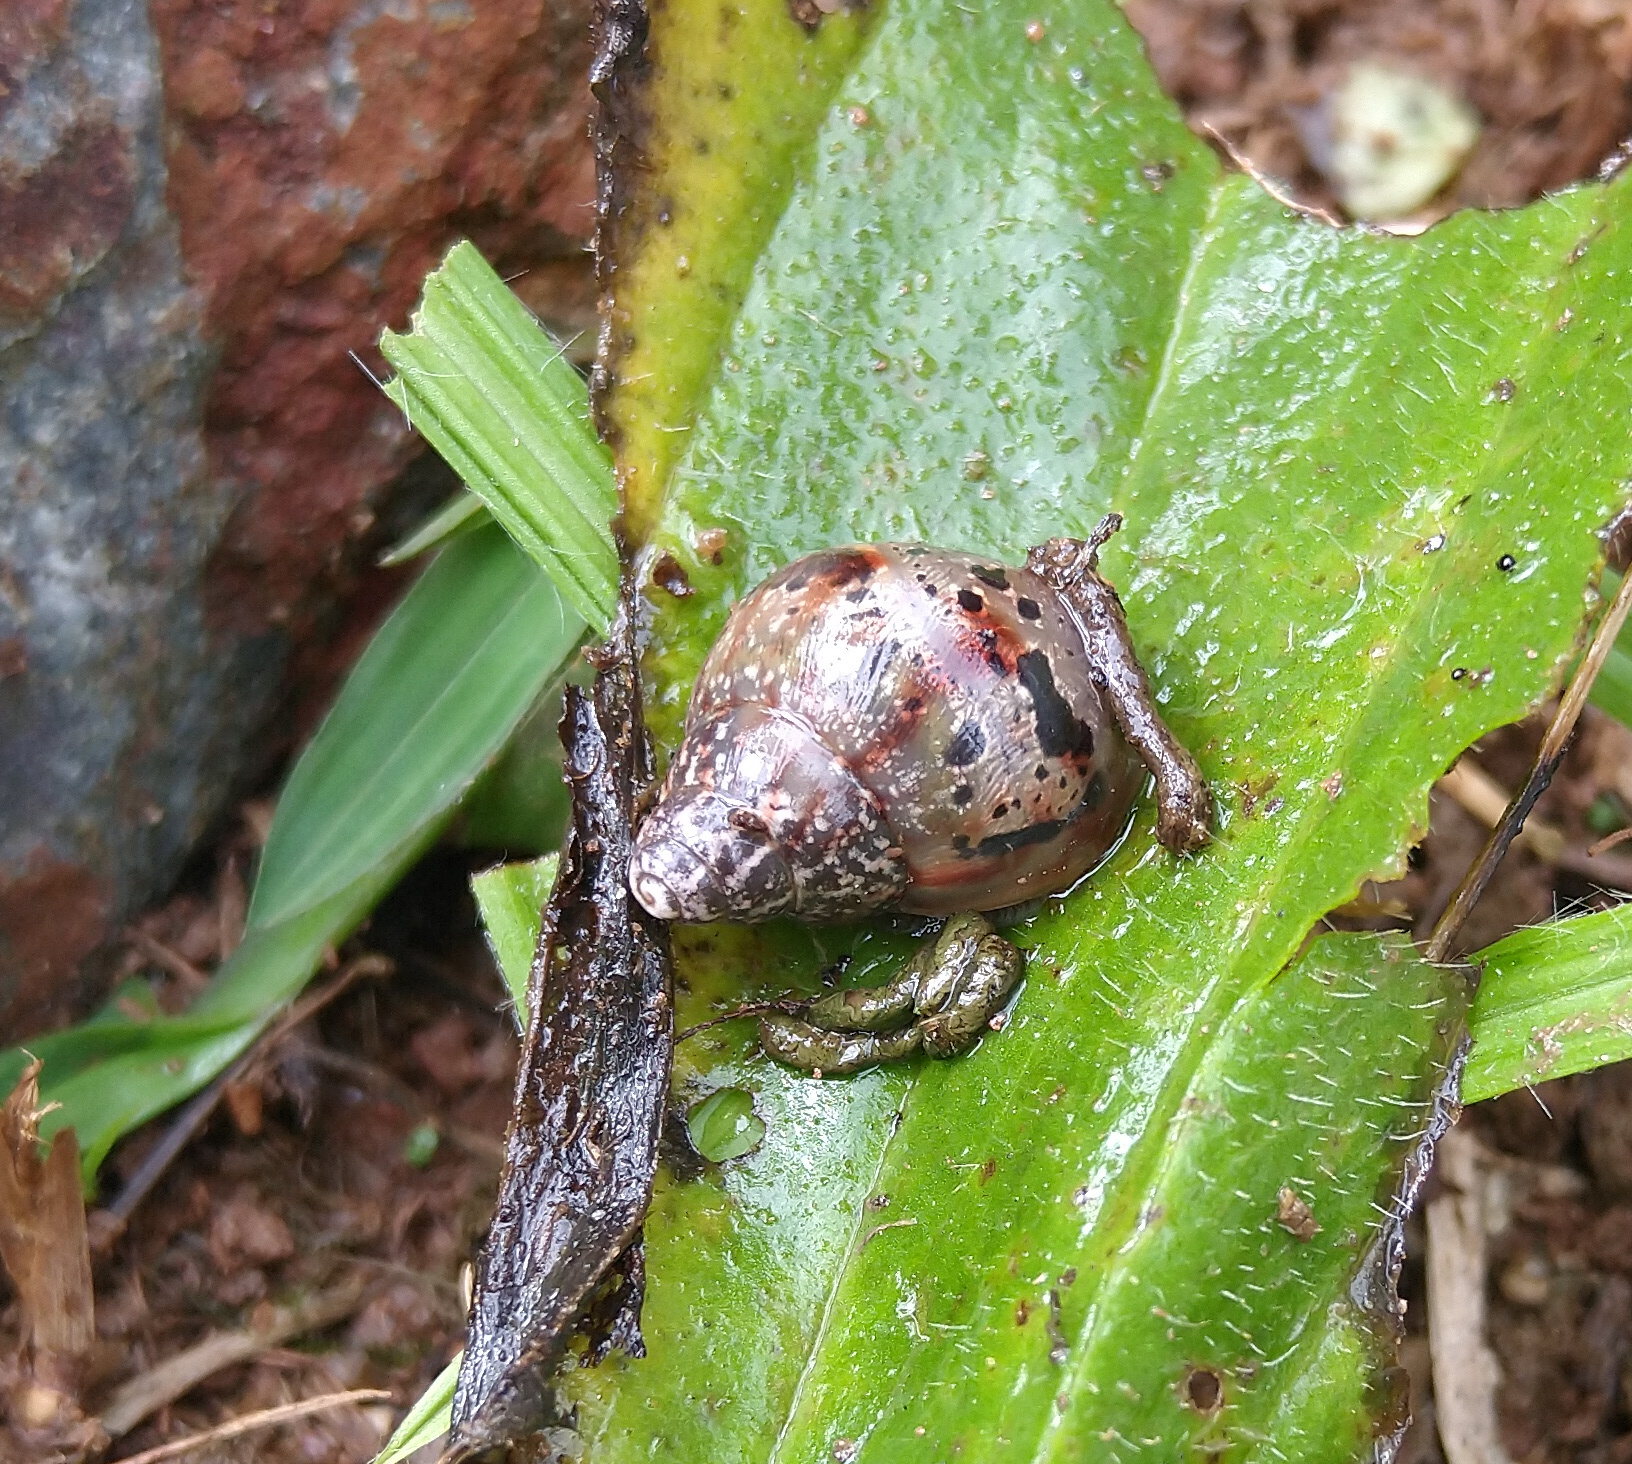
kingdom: Animalia
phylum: Mollusca
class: Gastropoda
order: Stylommatophora
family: Achatinidae
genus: Lissachatina
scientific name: Lissachatina fulica
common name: Giant african snail
